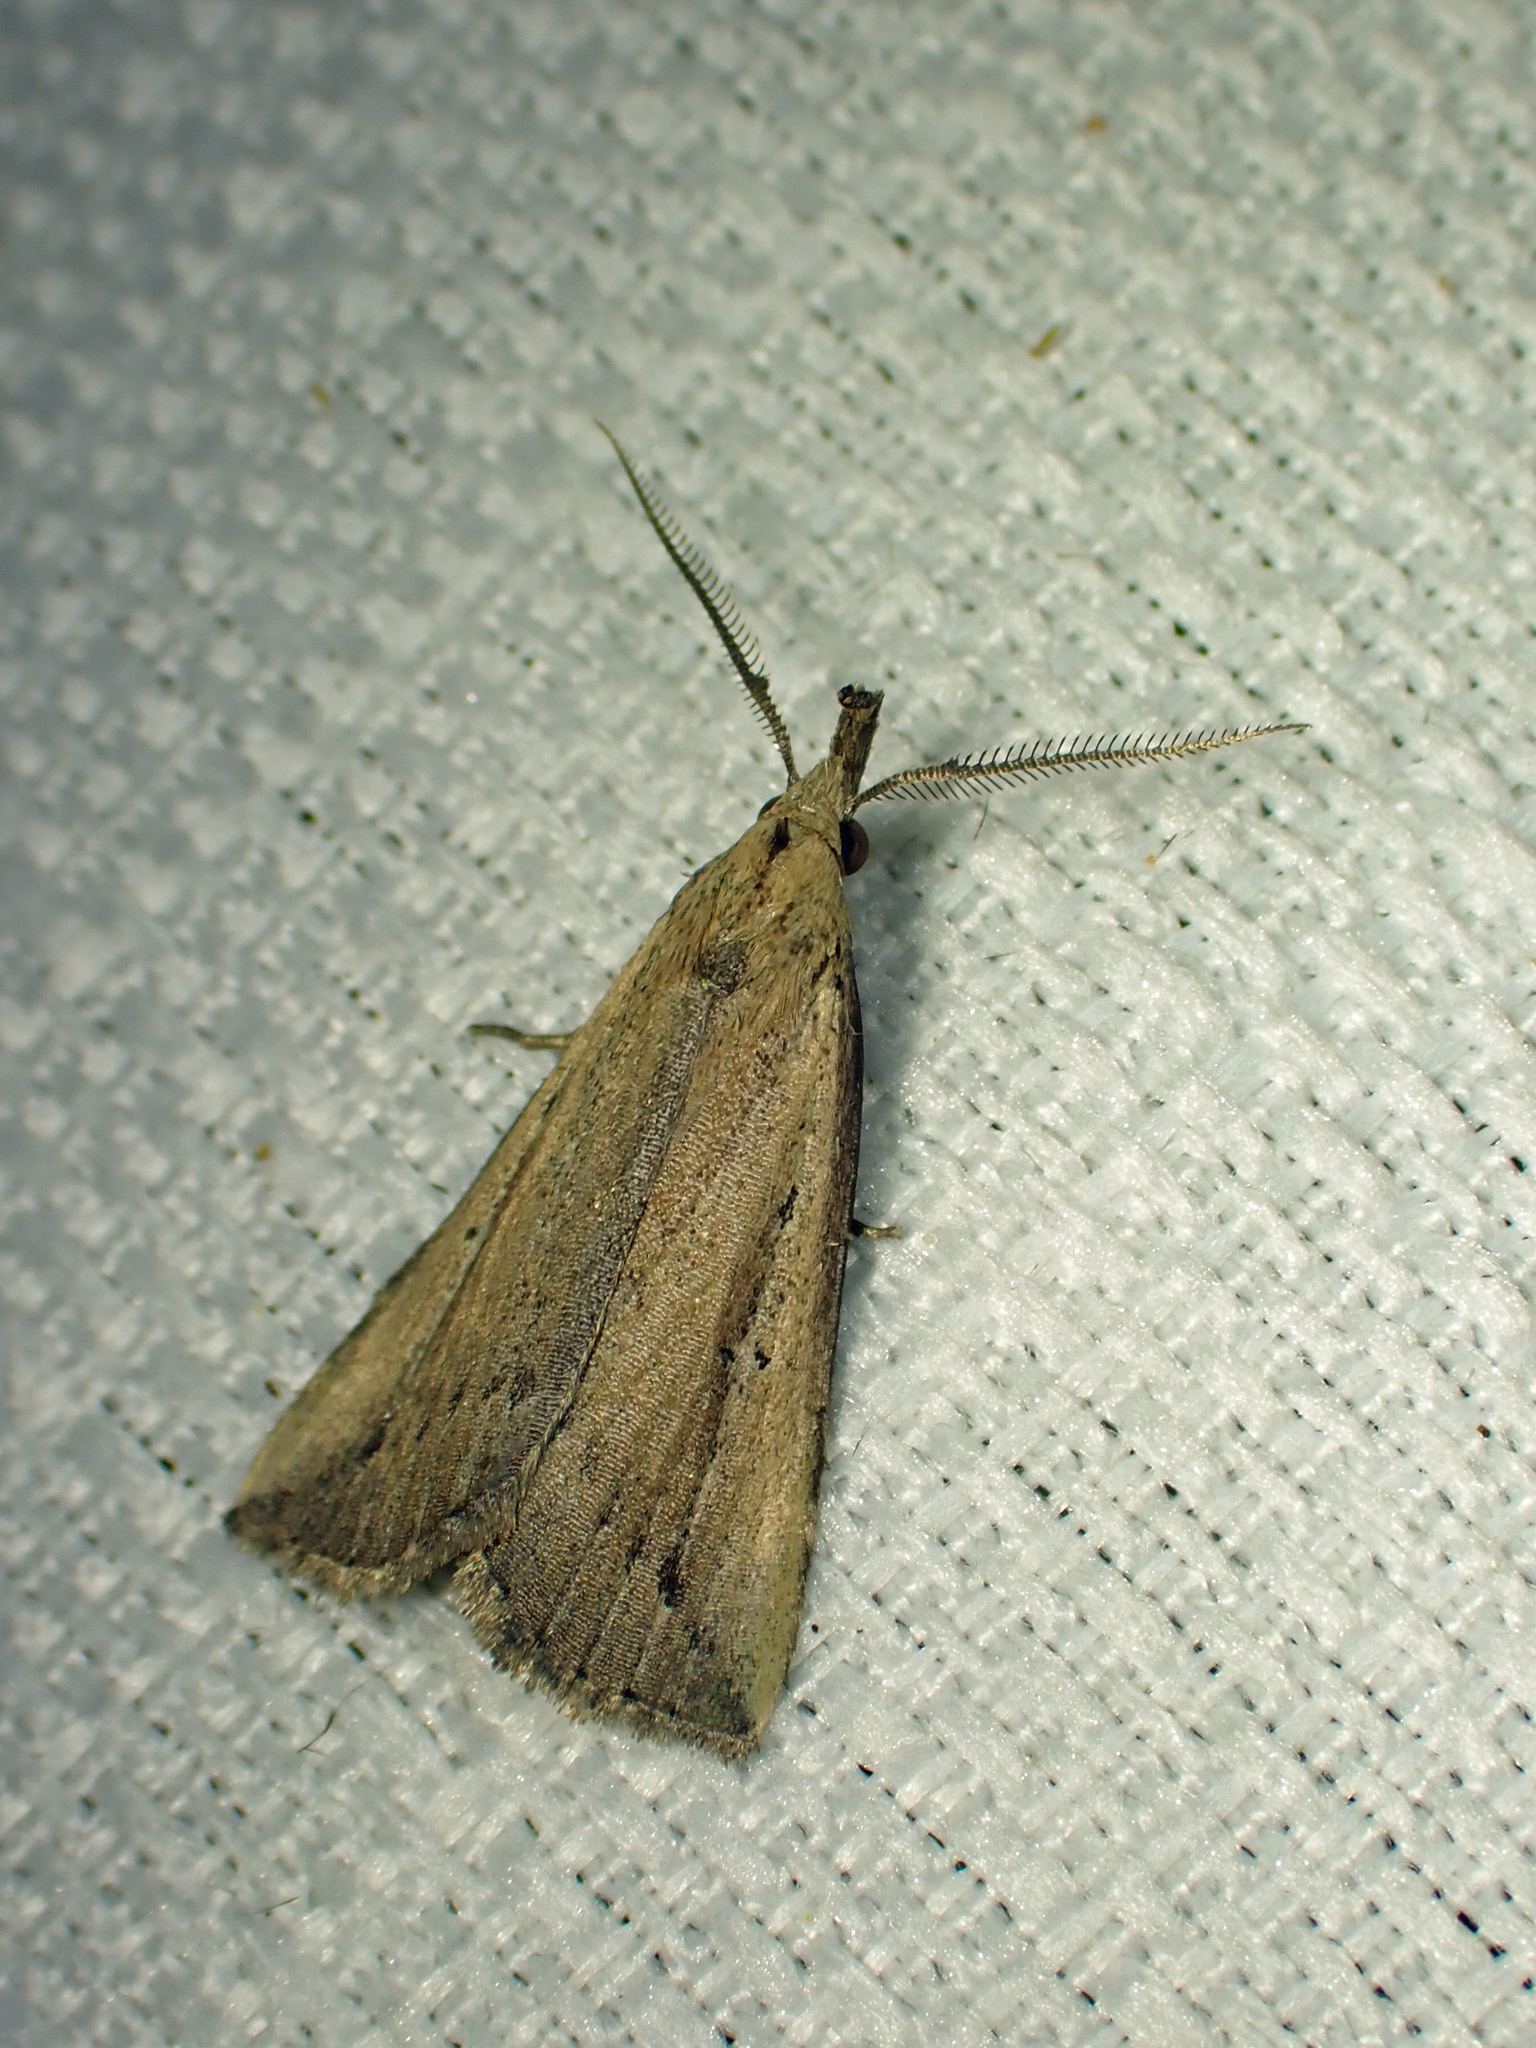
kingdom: Animalia
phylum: Arthropoda
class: Insecta
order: Lepidoptera
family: Erebidae
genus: Macrochilo
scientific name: Macrochilo orciferalis
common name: Bronzy owlet
